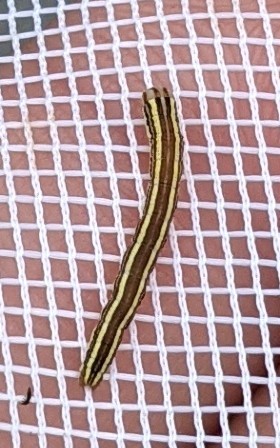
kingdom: Animalia
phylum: Arthropoda
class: Insecta
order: Lepidoptera
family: Noctuidae
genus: Trichordestra
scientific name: Trichordestra legitima
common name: Striped garden caterpillar
